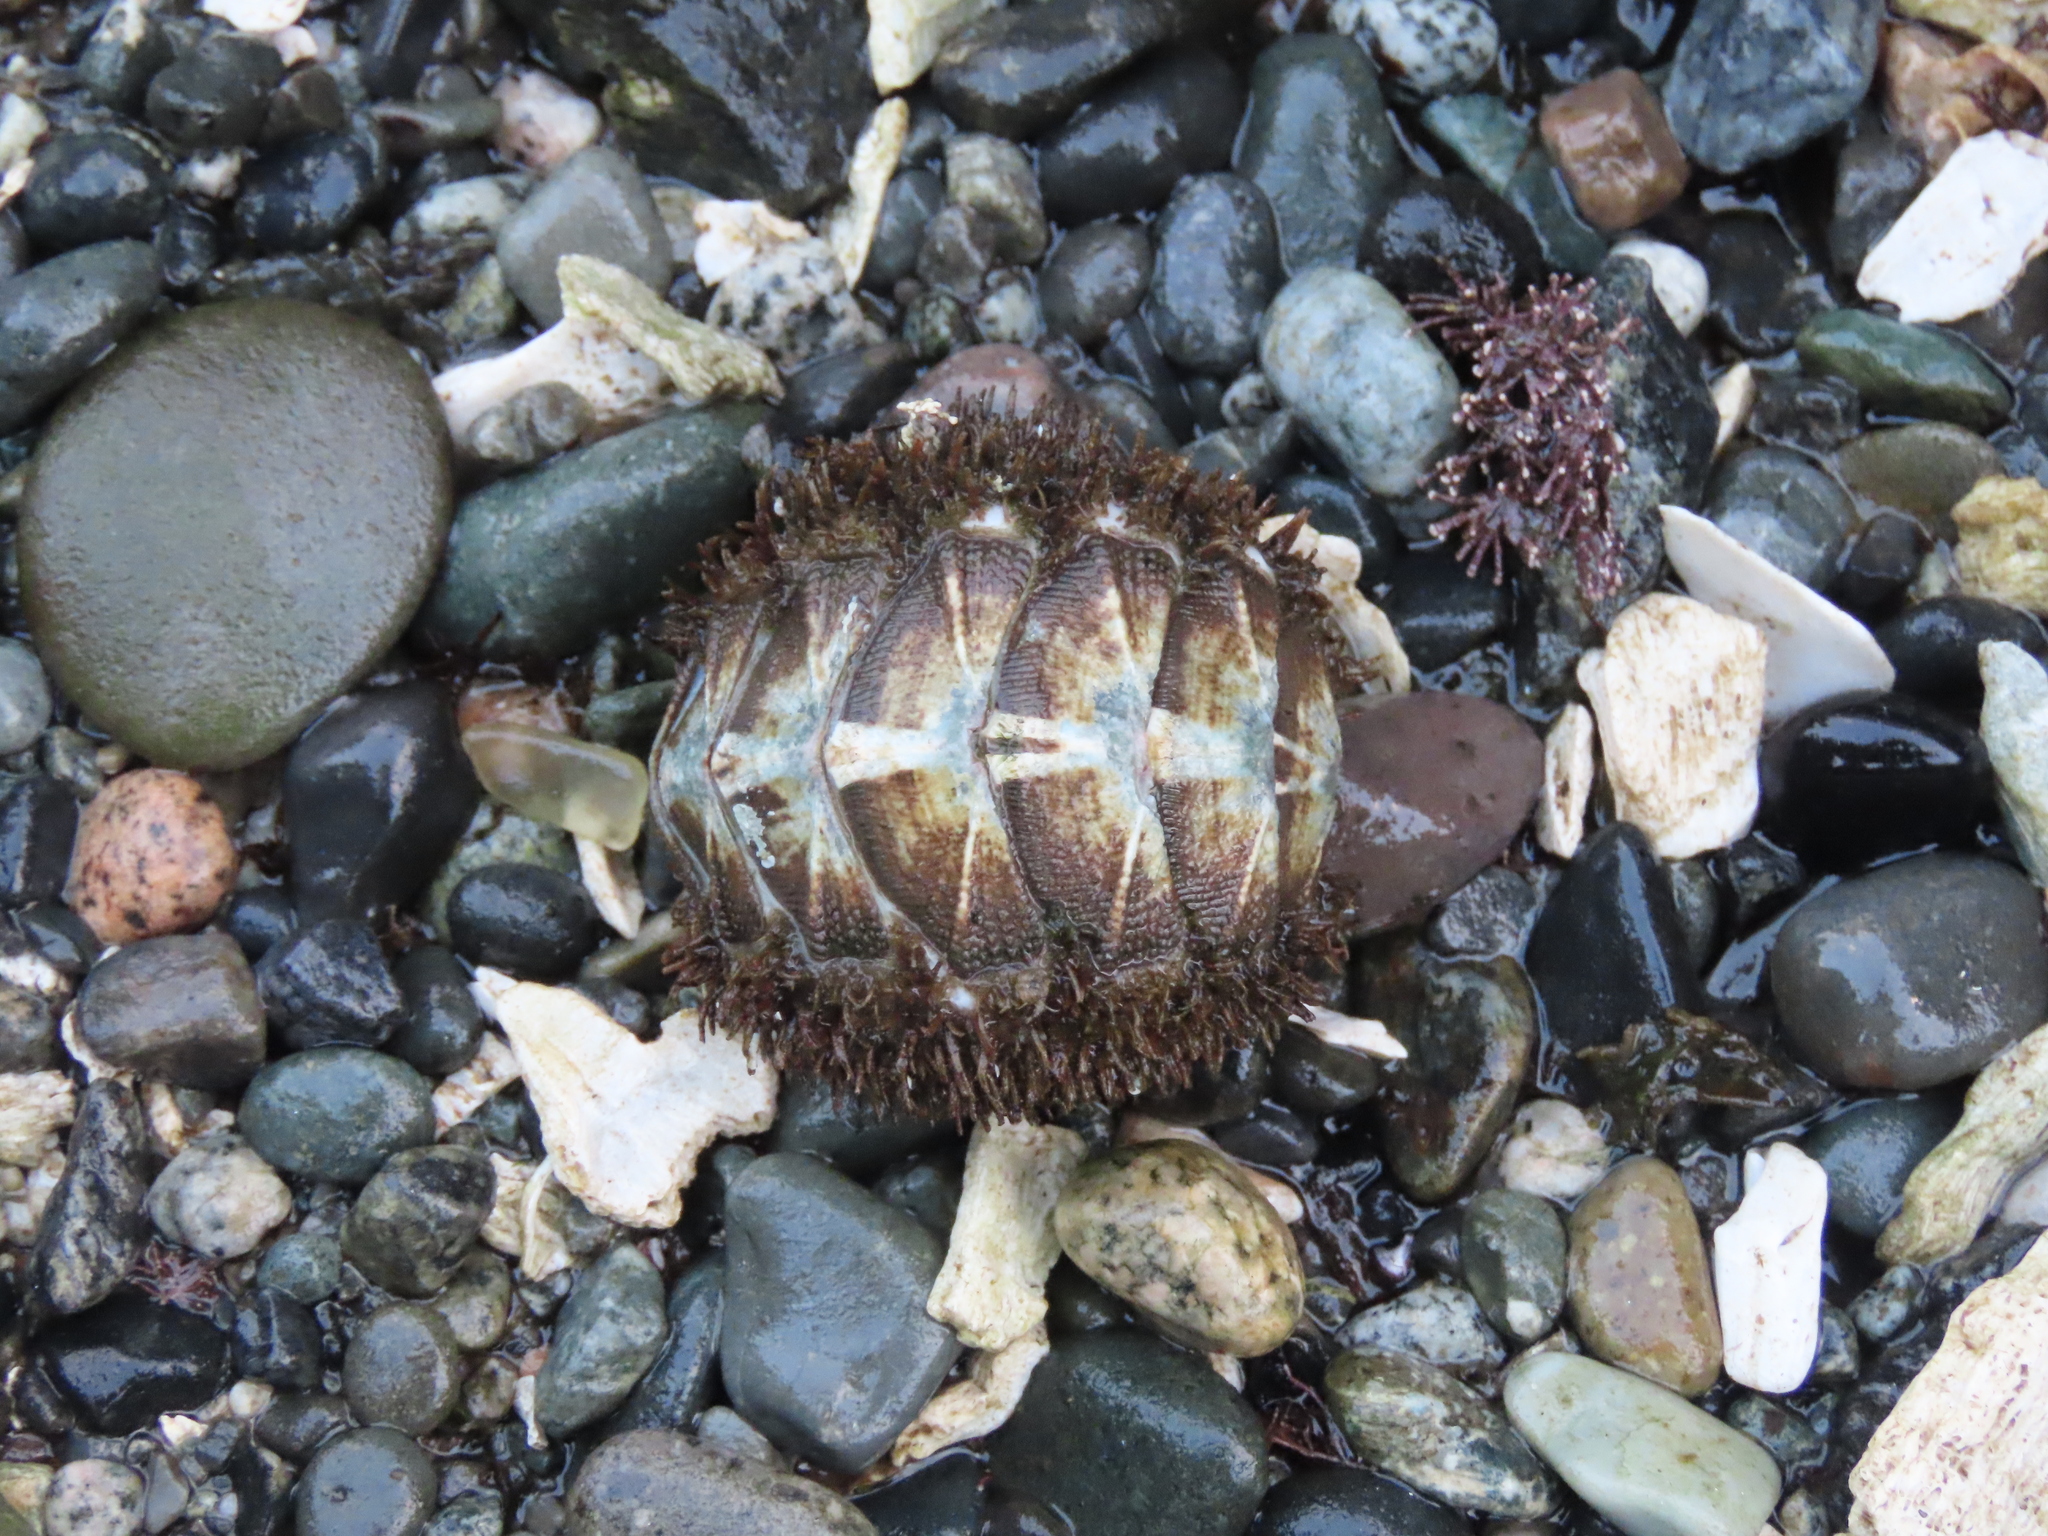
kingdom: Animalia
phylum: Mollusca
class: Polyplacophora
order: Chitonida
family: Mopaliidae
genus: Mopalia
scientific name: Mopalia muscosa
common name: Mossy chiton
